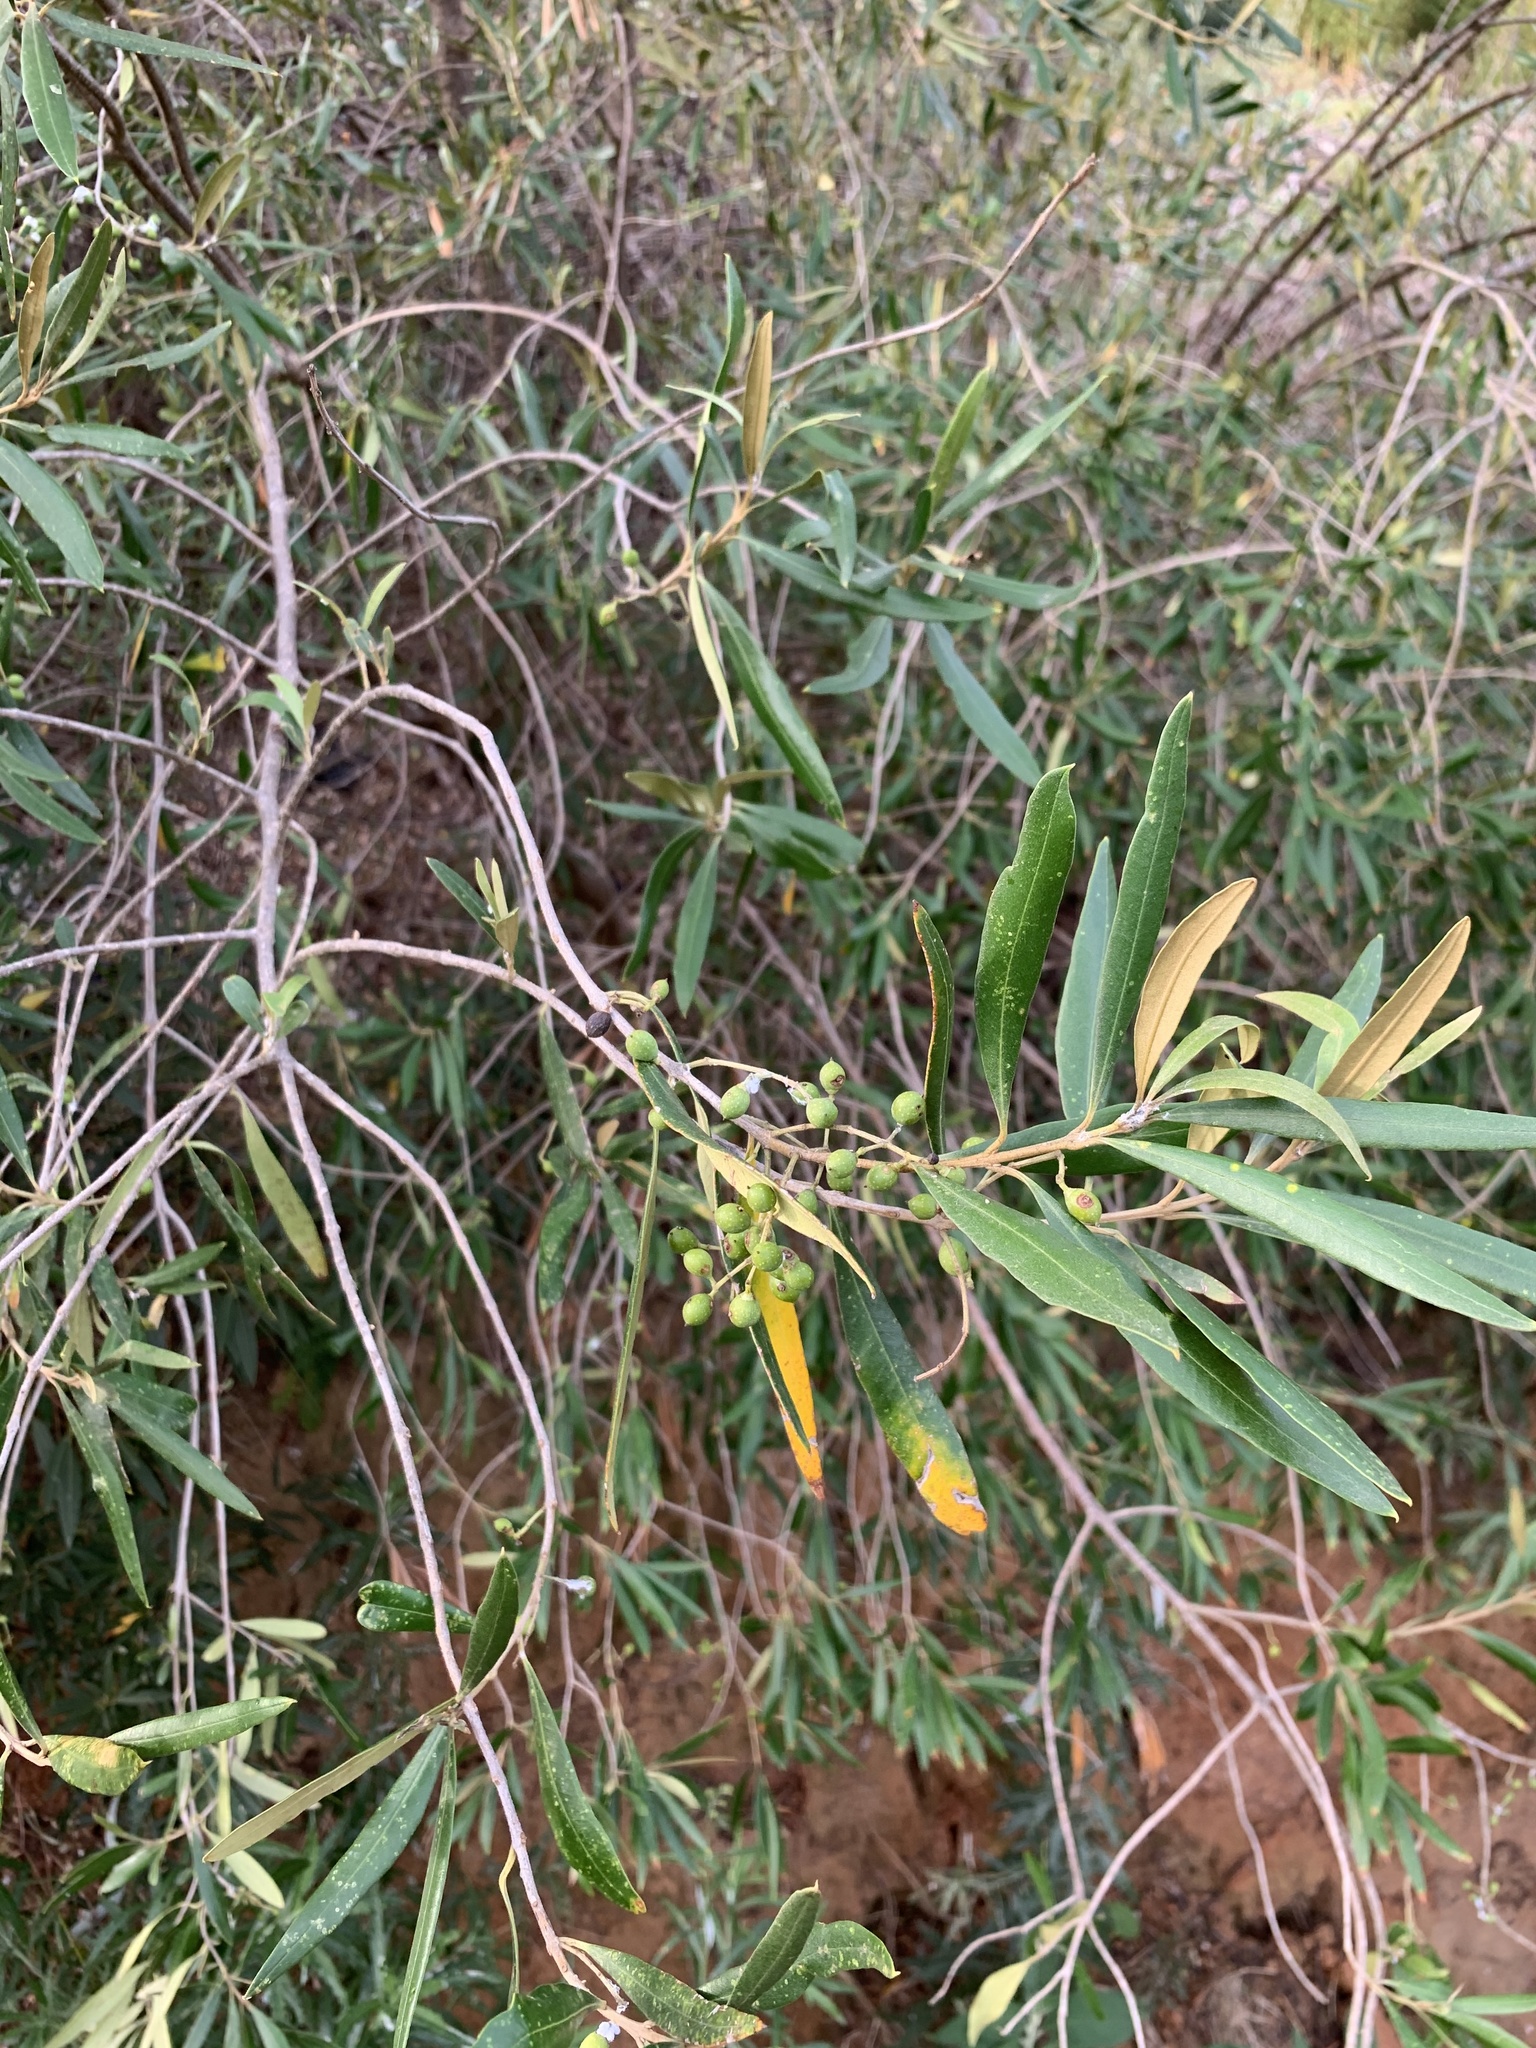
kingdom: Plantae
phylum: Tracheophyta
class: Magnoliopsida
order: Lamiales
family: Oleaceae
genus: Olea
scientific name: Olea europaea
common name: Olive
